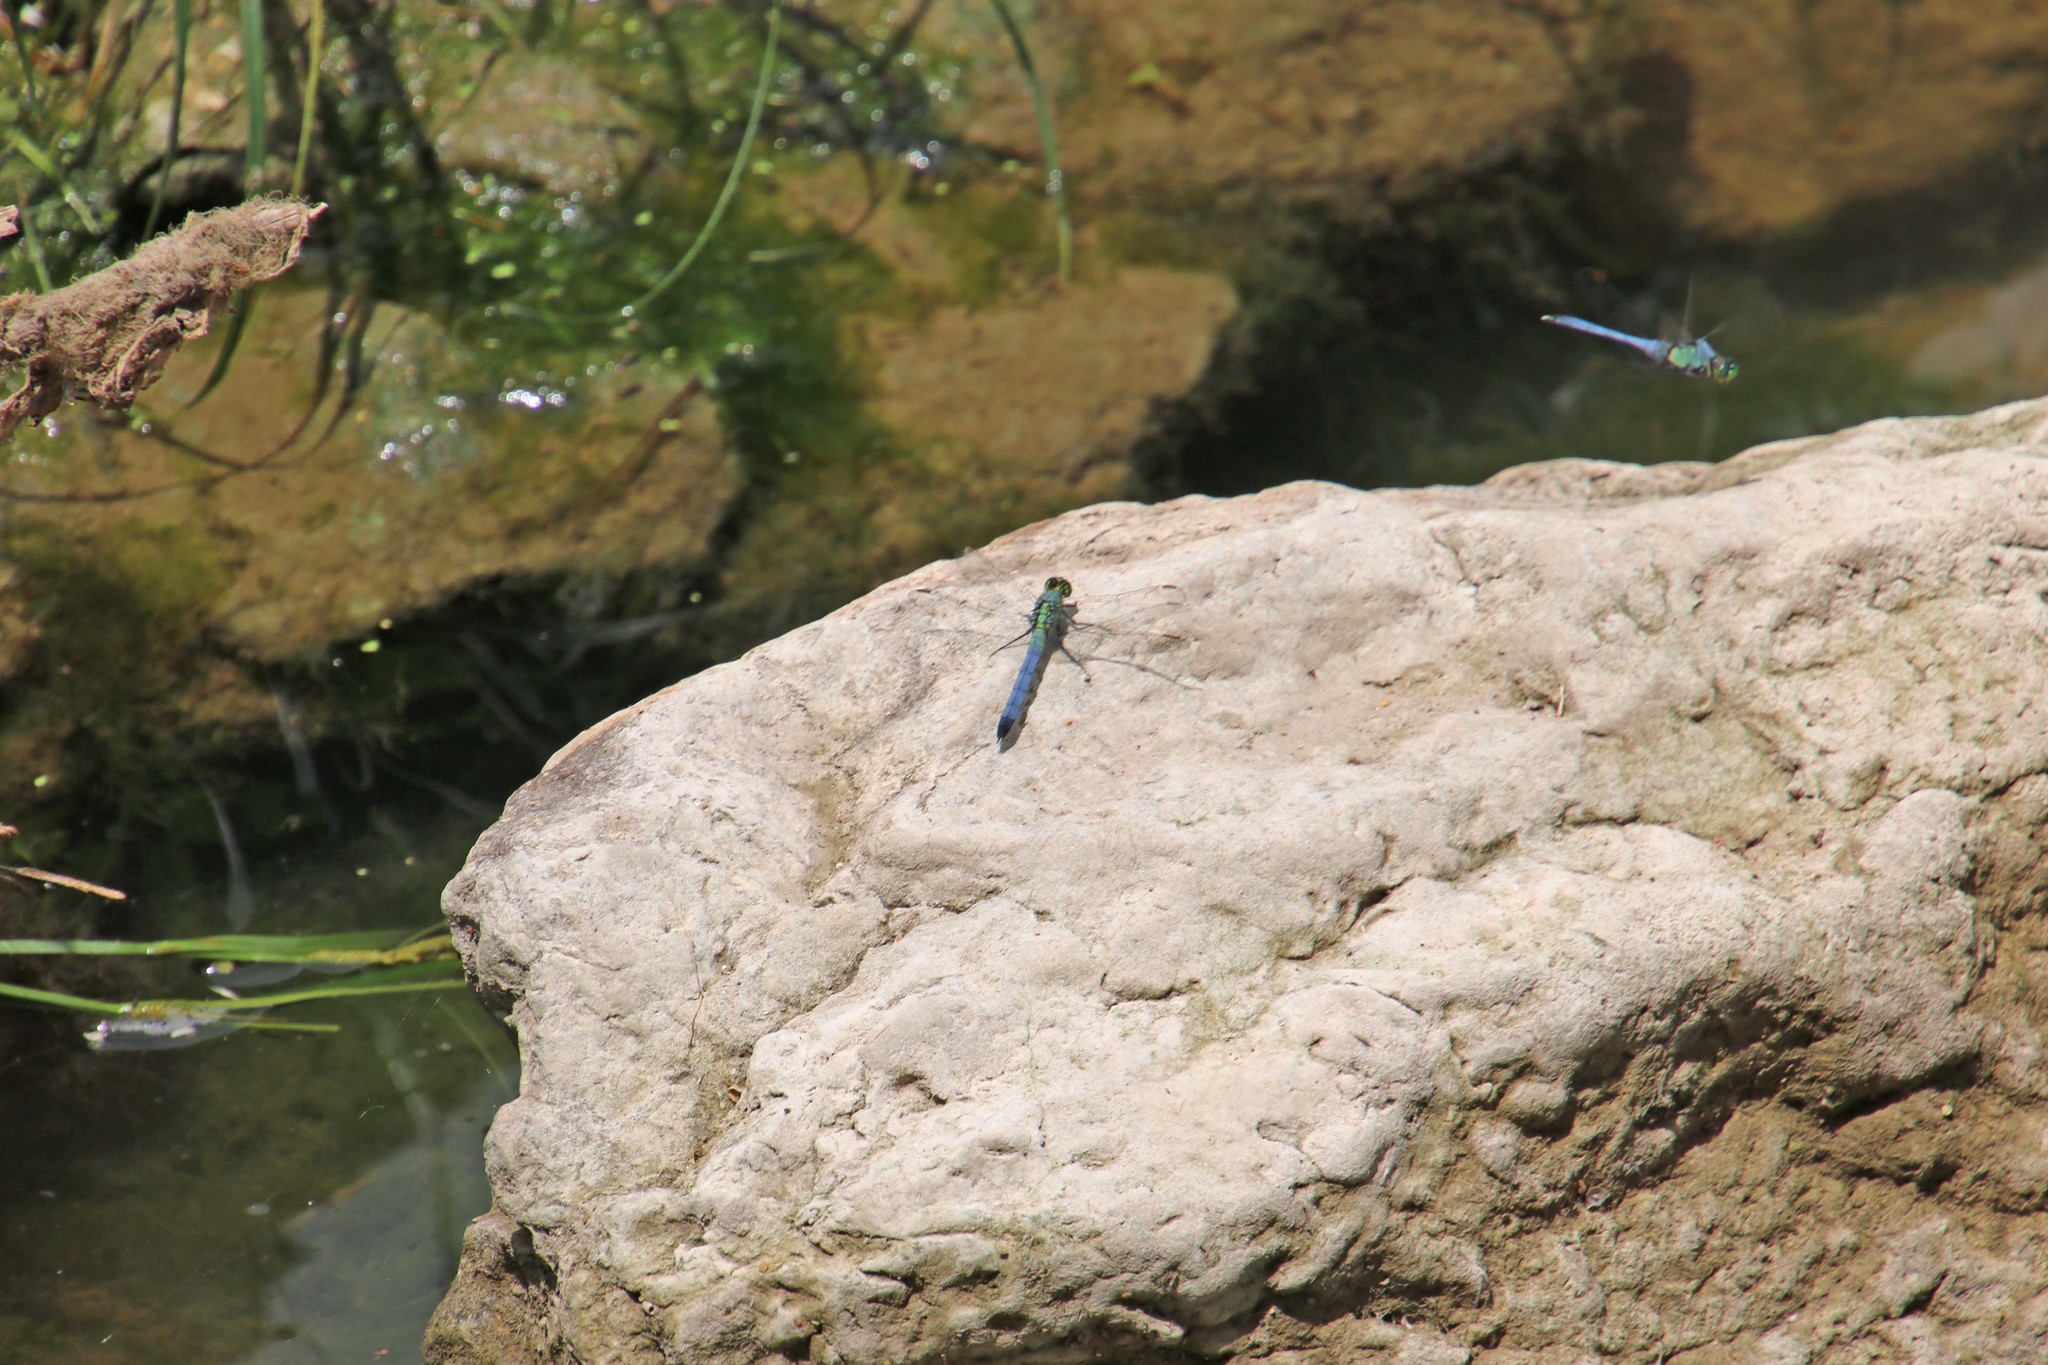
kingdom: Animalia
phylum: Arthropoda
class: Insecta
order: Odonata
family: Libellulidae
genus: Erythemis
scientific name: Erythemis simplicicollis
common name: Eastern pondhawk
